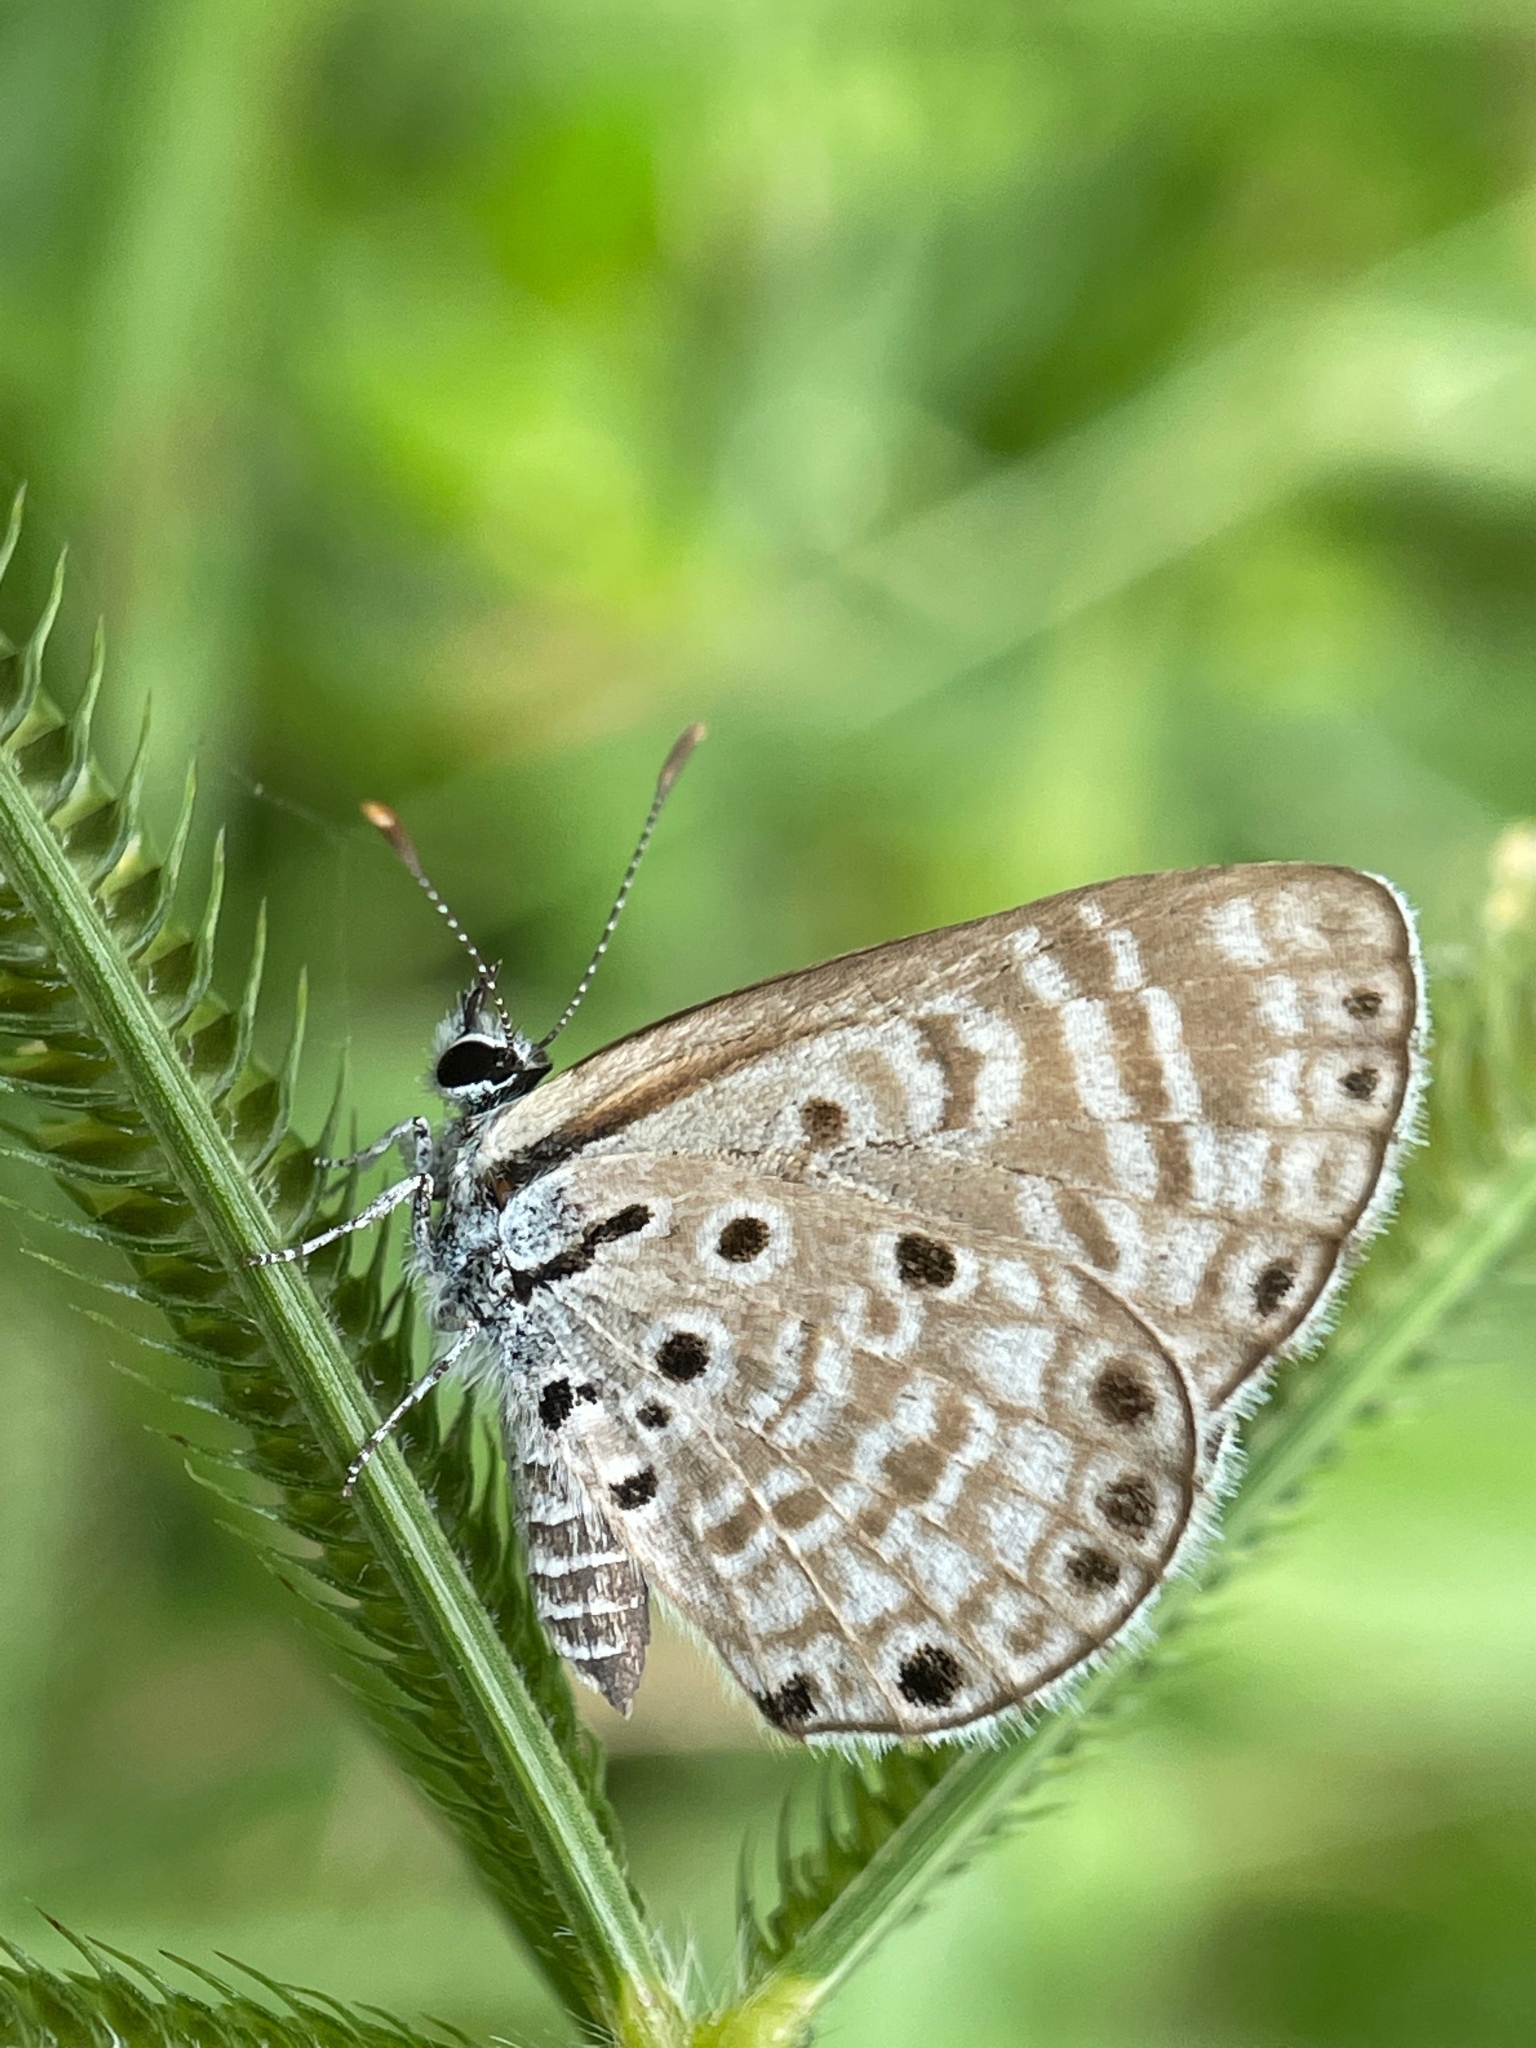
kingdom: Animalia
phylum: Arthropoda
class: Insecta
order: Lepidoptera
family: Lycaenidae
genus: Azanus
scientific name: Azanus jesous
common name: African babul blue
